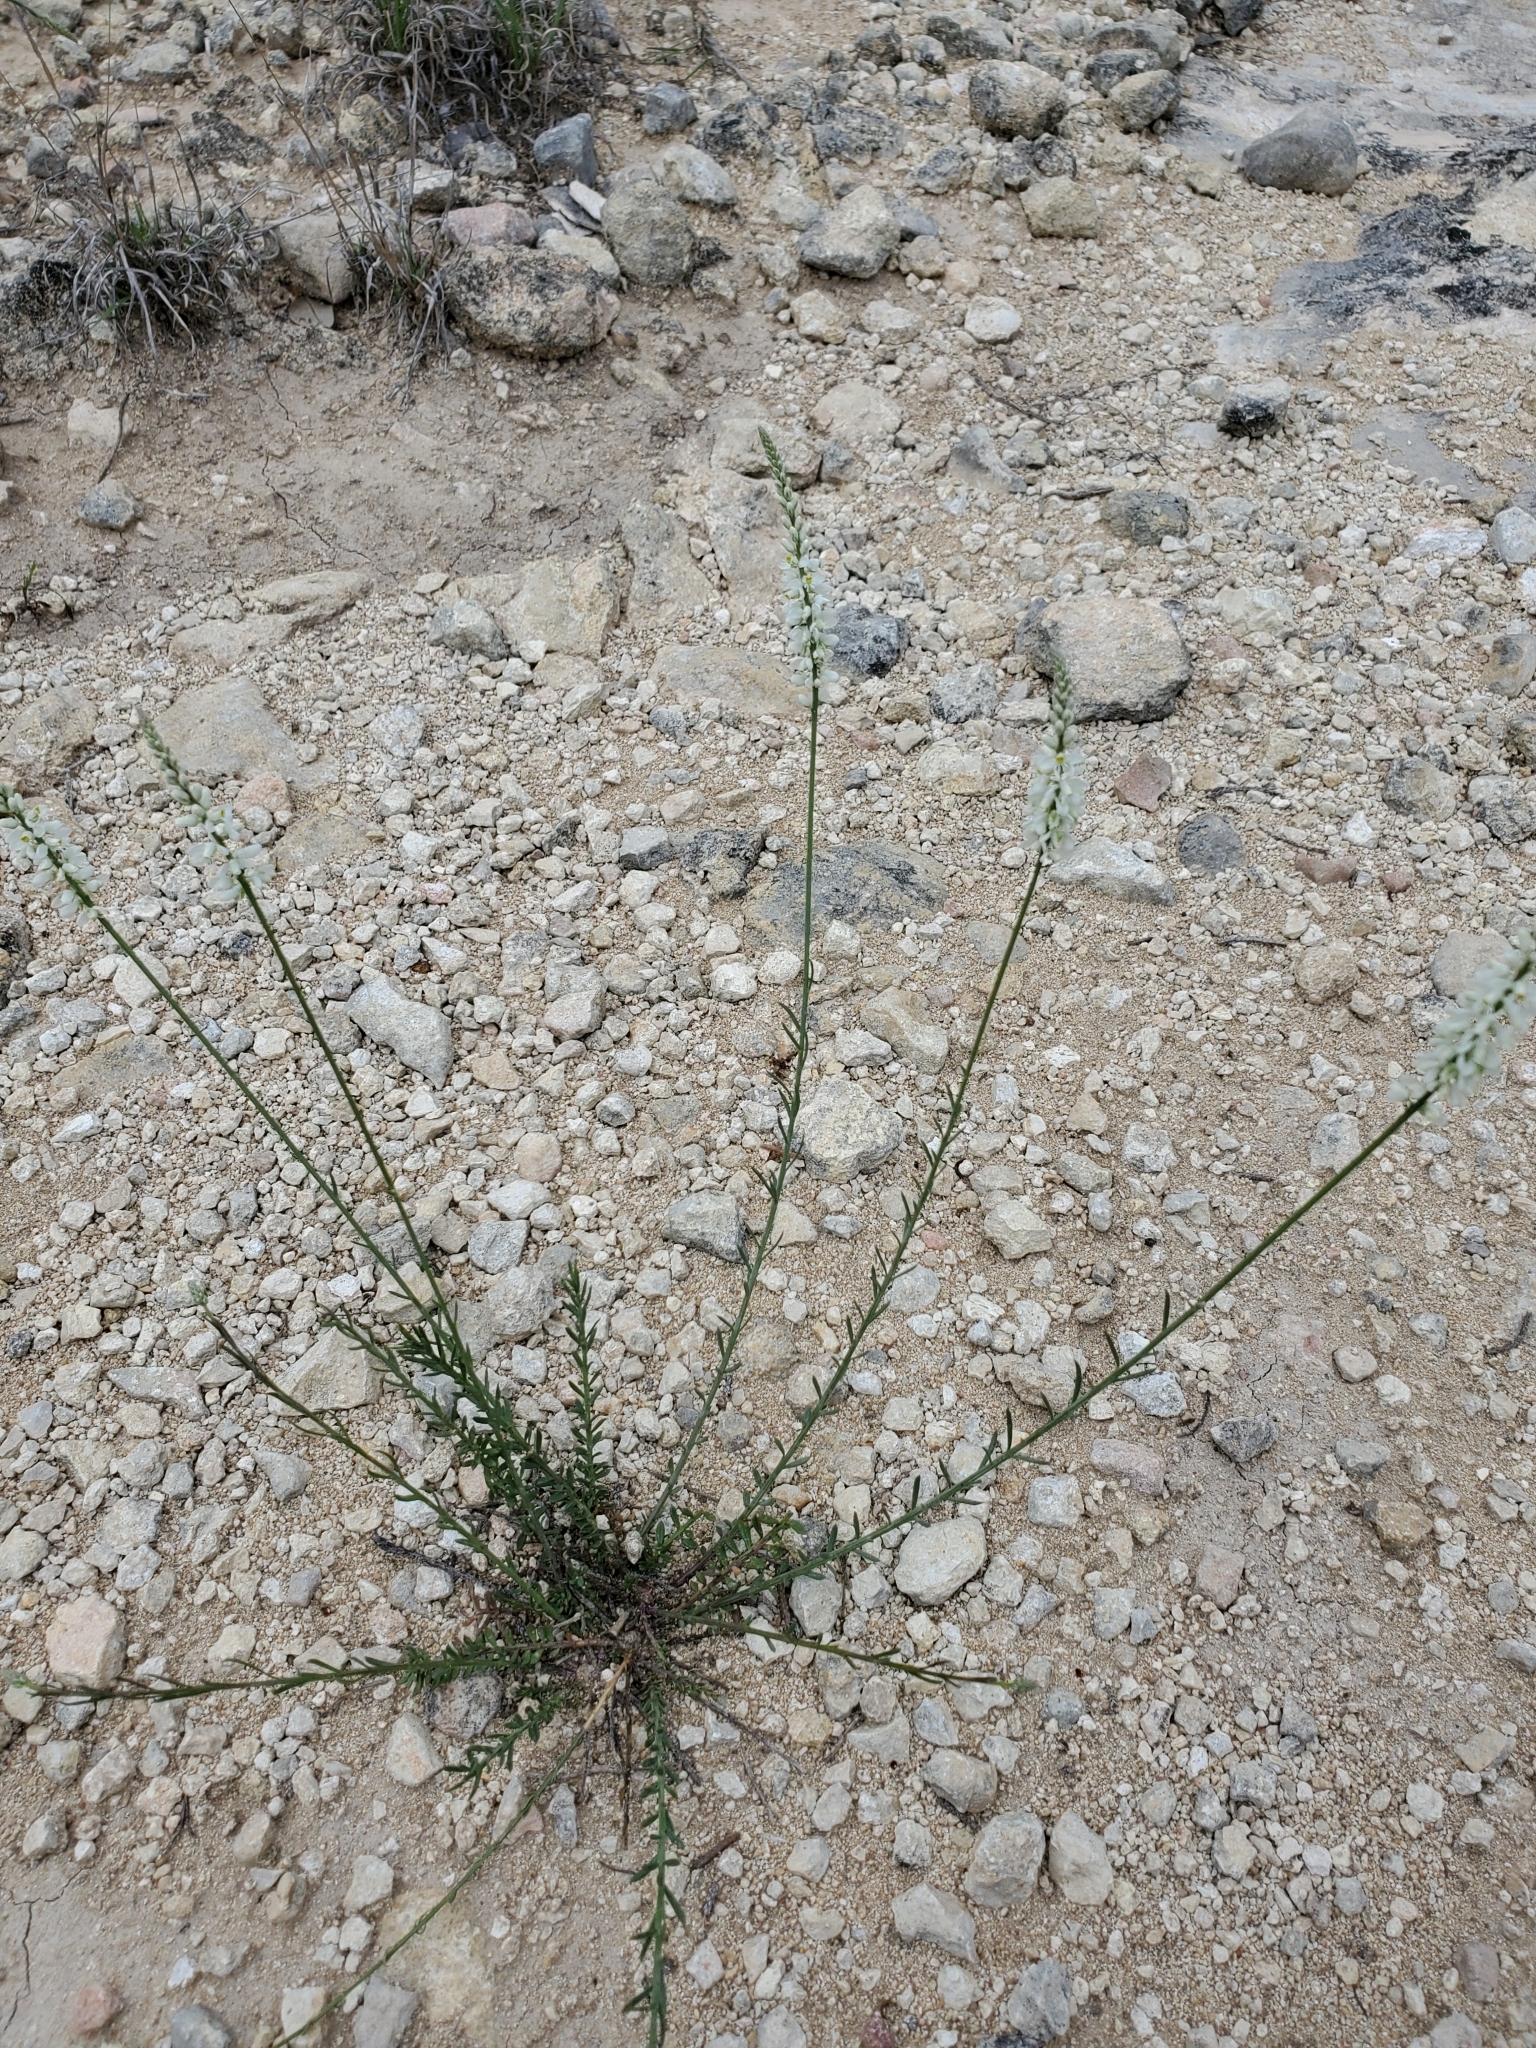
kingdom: Plantae
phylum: Tracheophyta
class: Magnoliopsida
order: Fabales
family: Polygalaceae
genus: Polygala
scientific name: Polygala alba
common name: White milkwort
